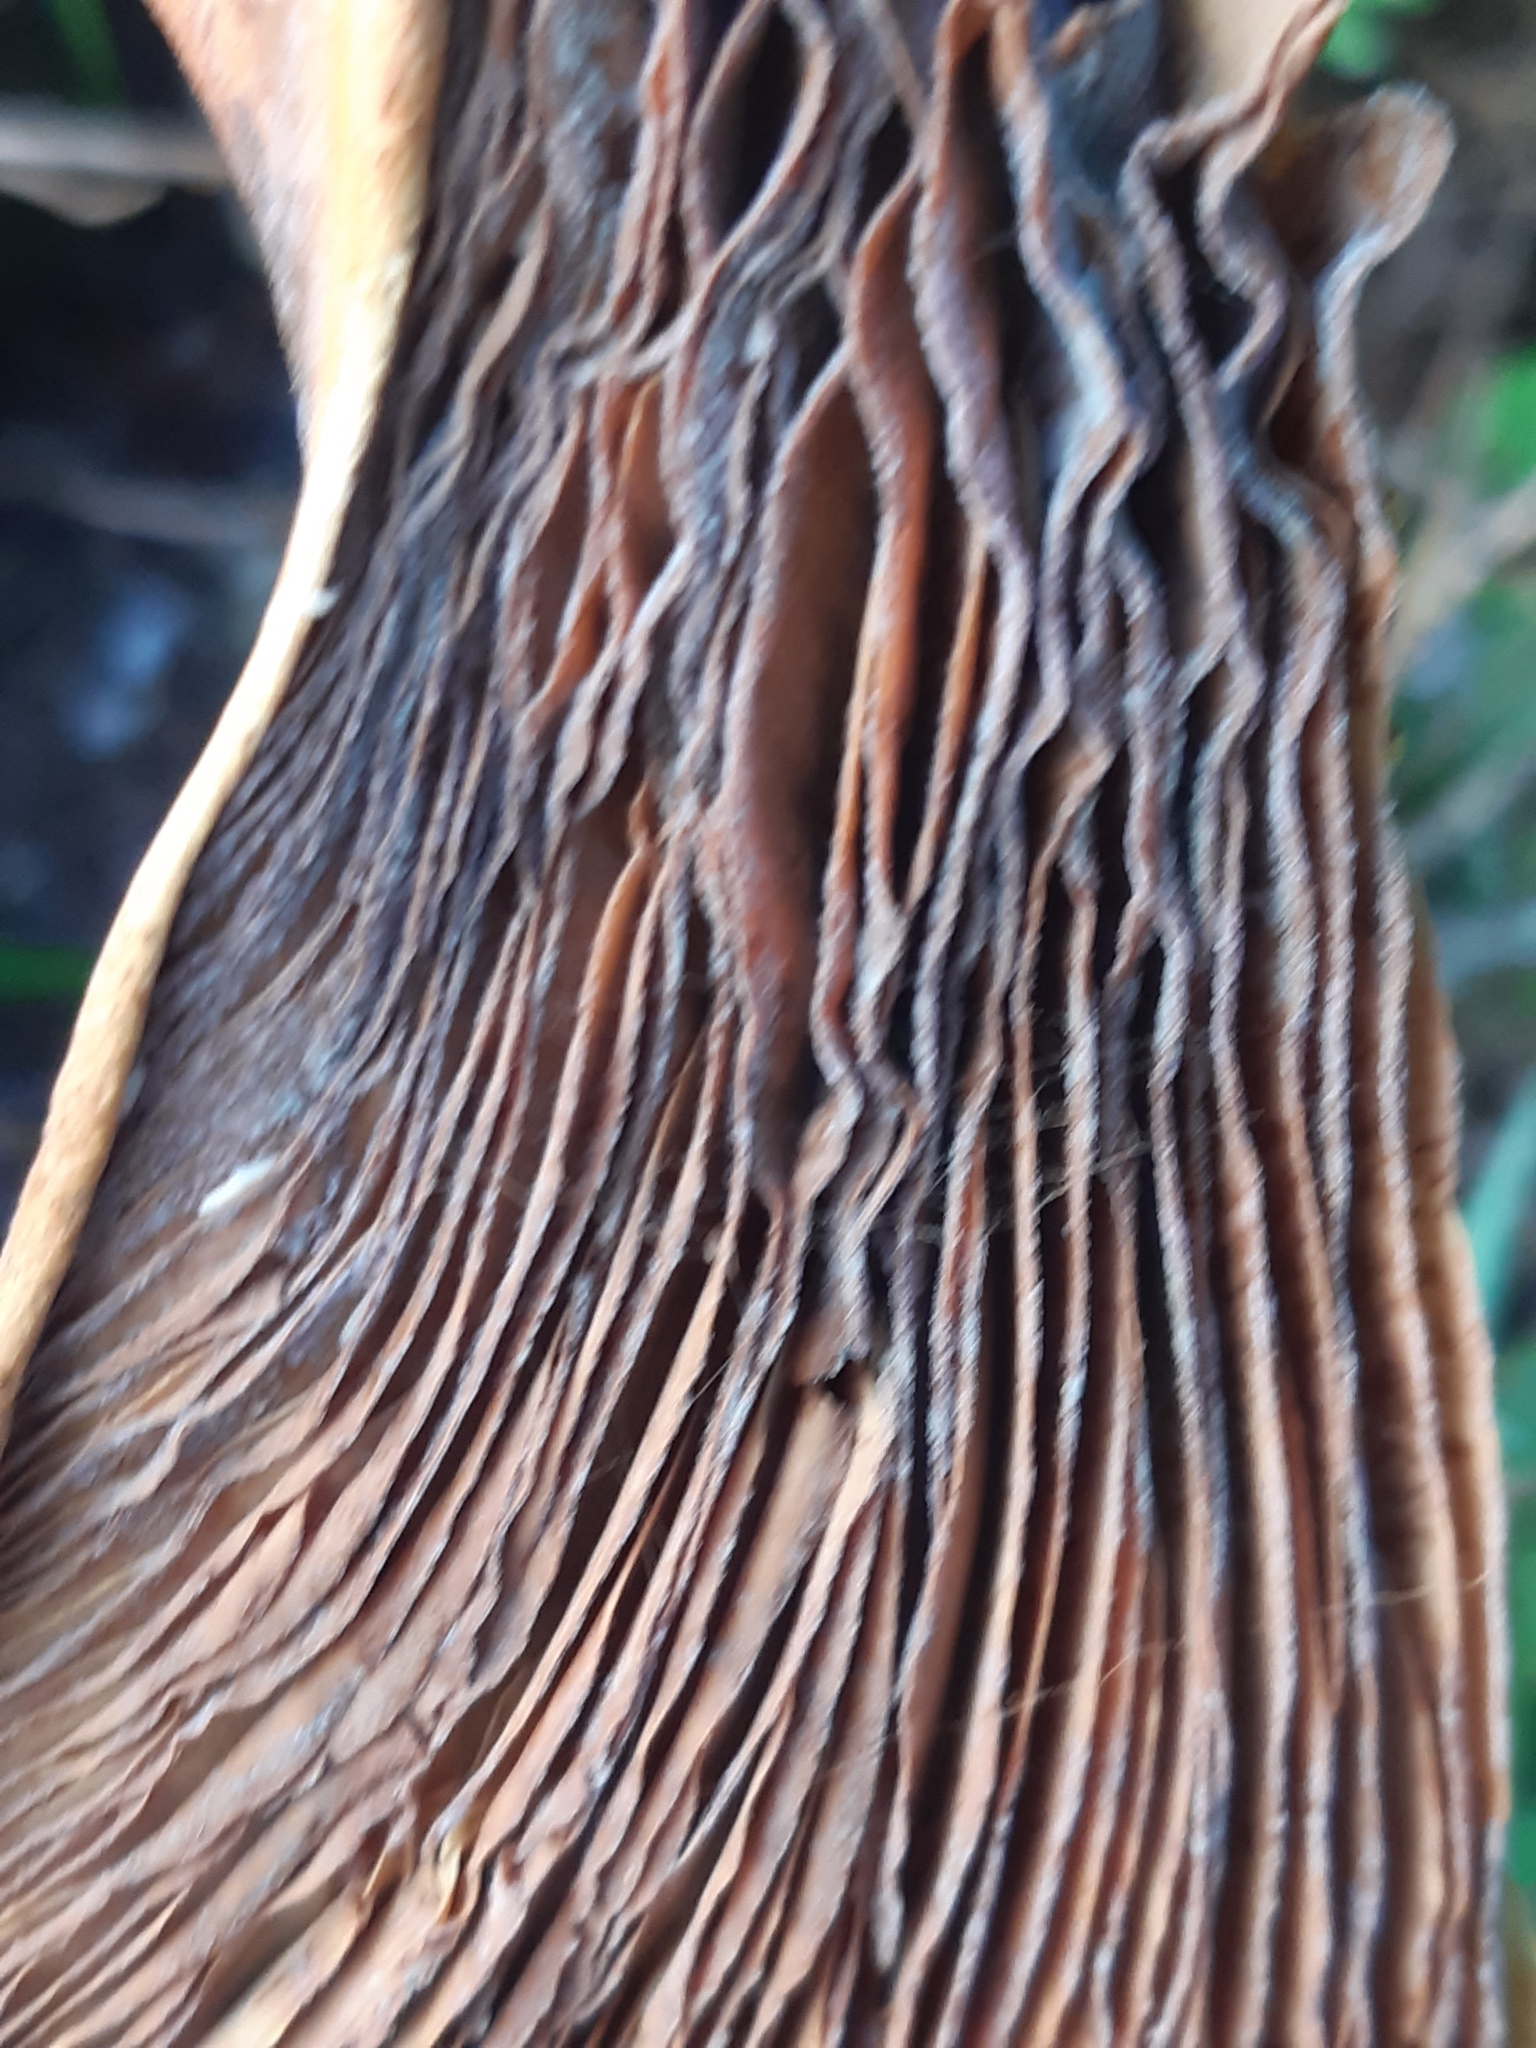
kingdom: Fungi
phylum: Basidiomycota
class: Agaricomycetes
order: Boletales
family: Tapinellaceae
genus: Tapinella
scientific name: Tapinella atrotomentosa
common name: Velvet rollrim
